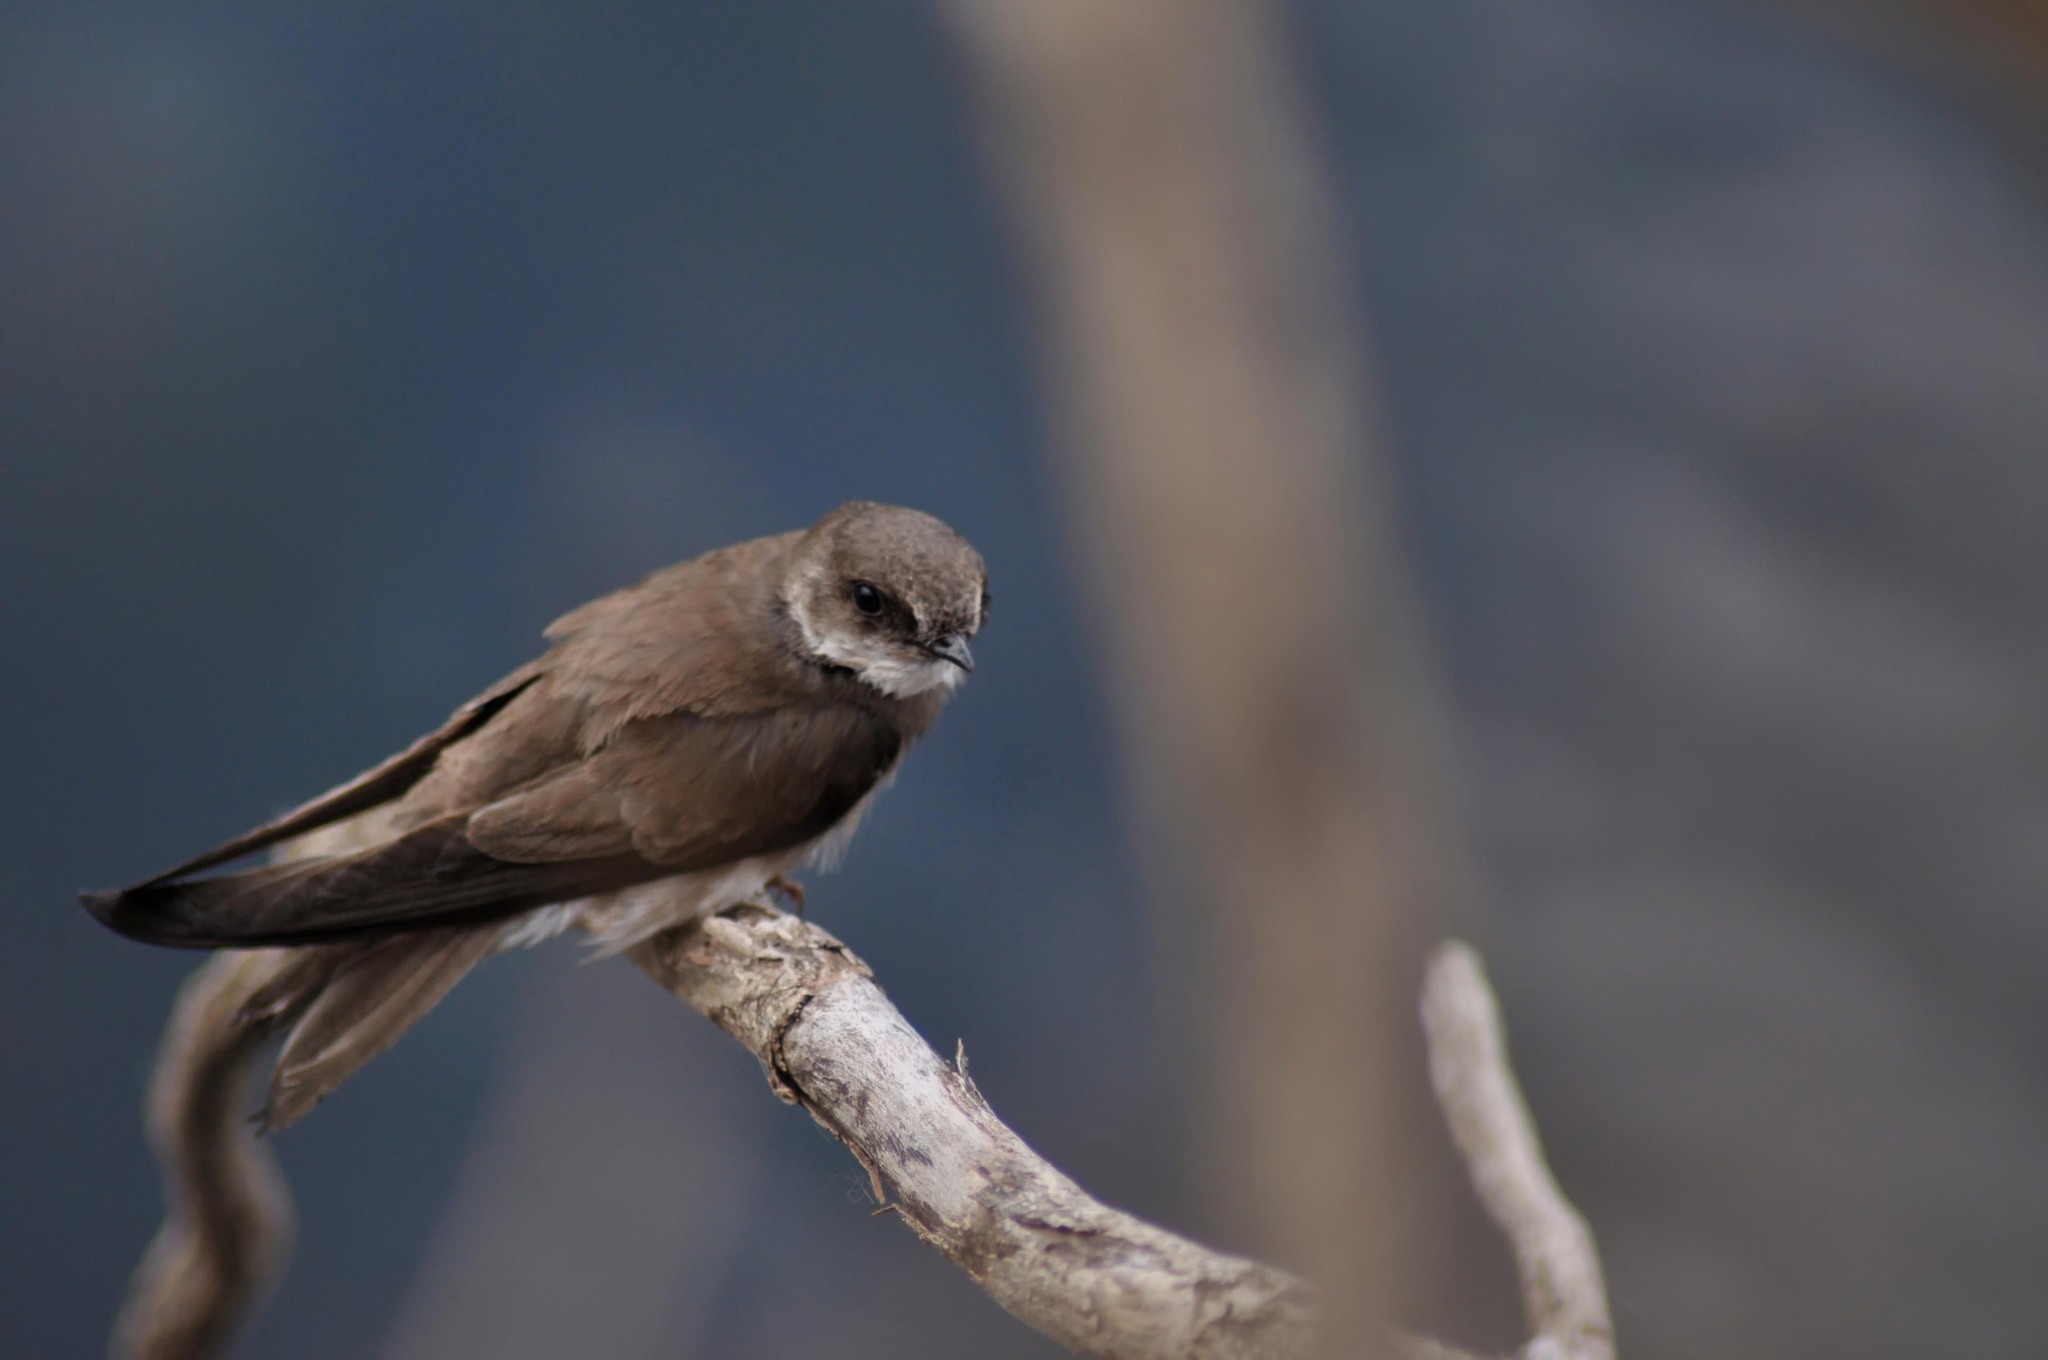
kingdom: Animalia
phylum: Chordata
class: Aves
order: Passeriformes
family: Hirundinidae
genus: Riparia
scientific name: Riparia riparia
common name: Sand martin
